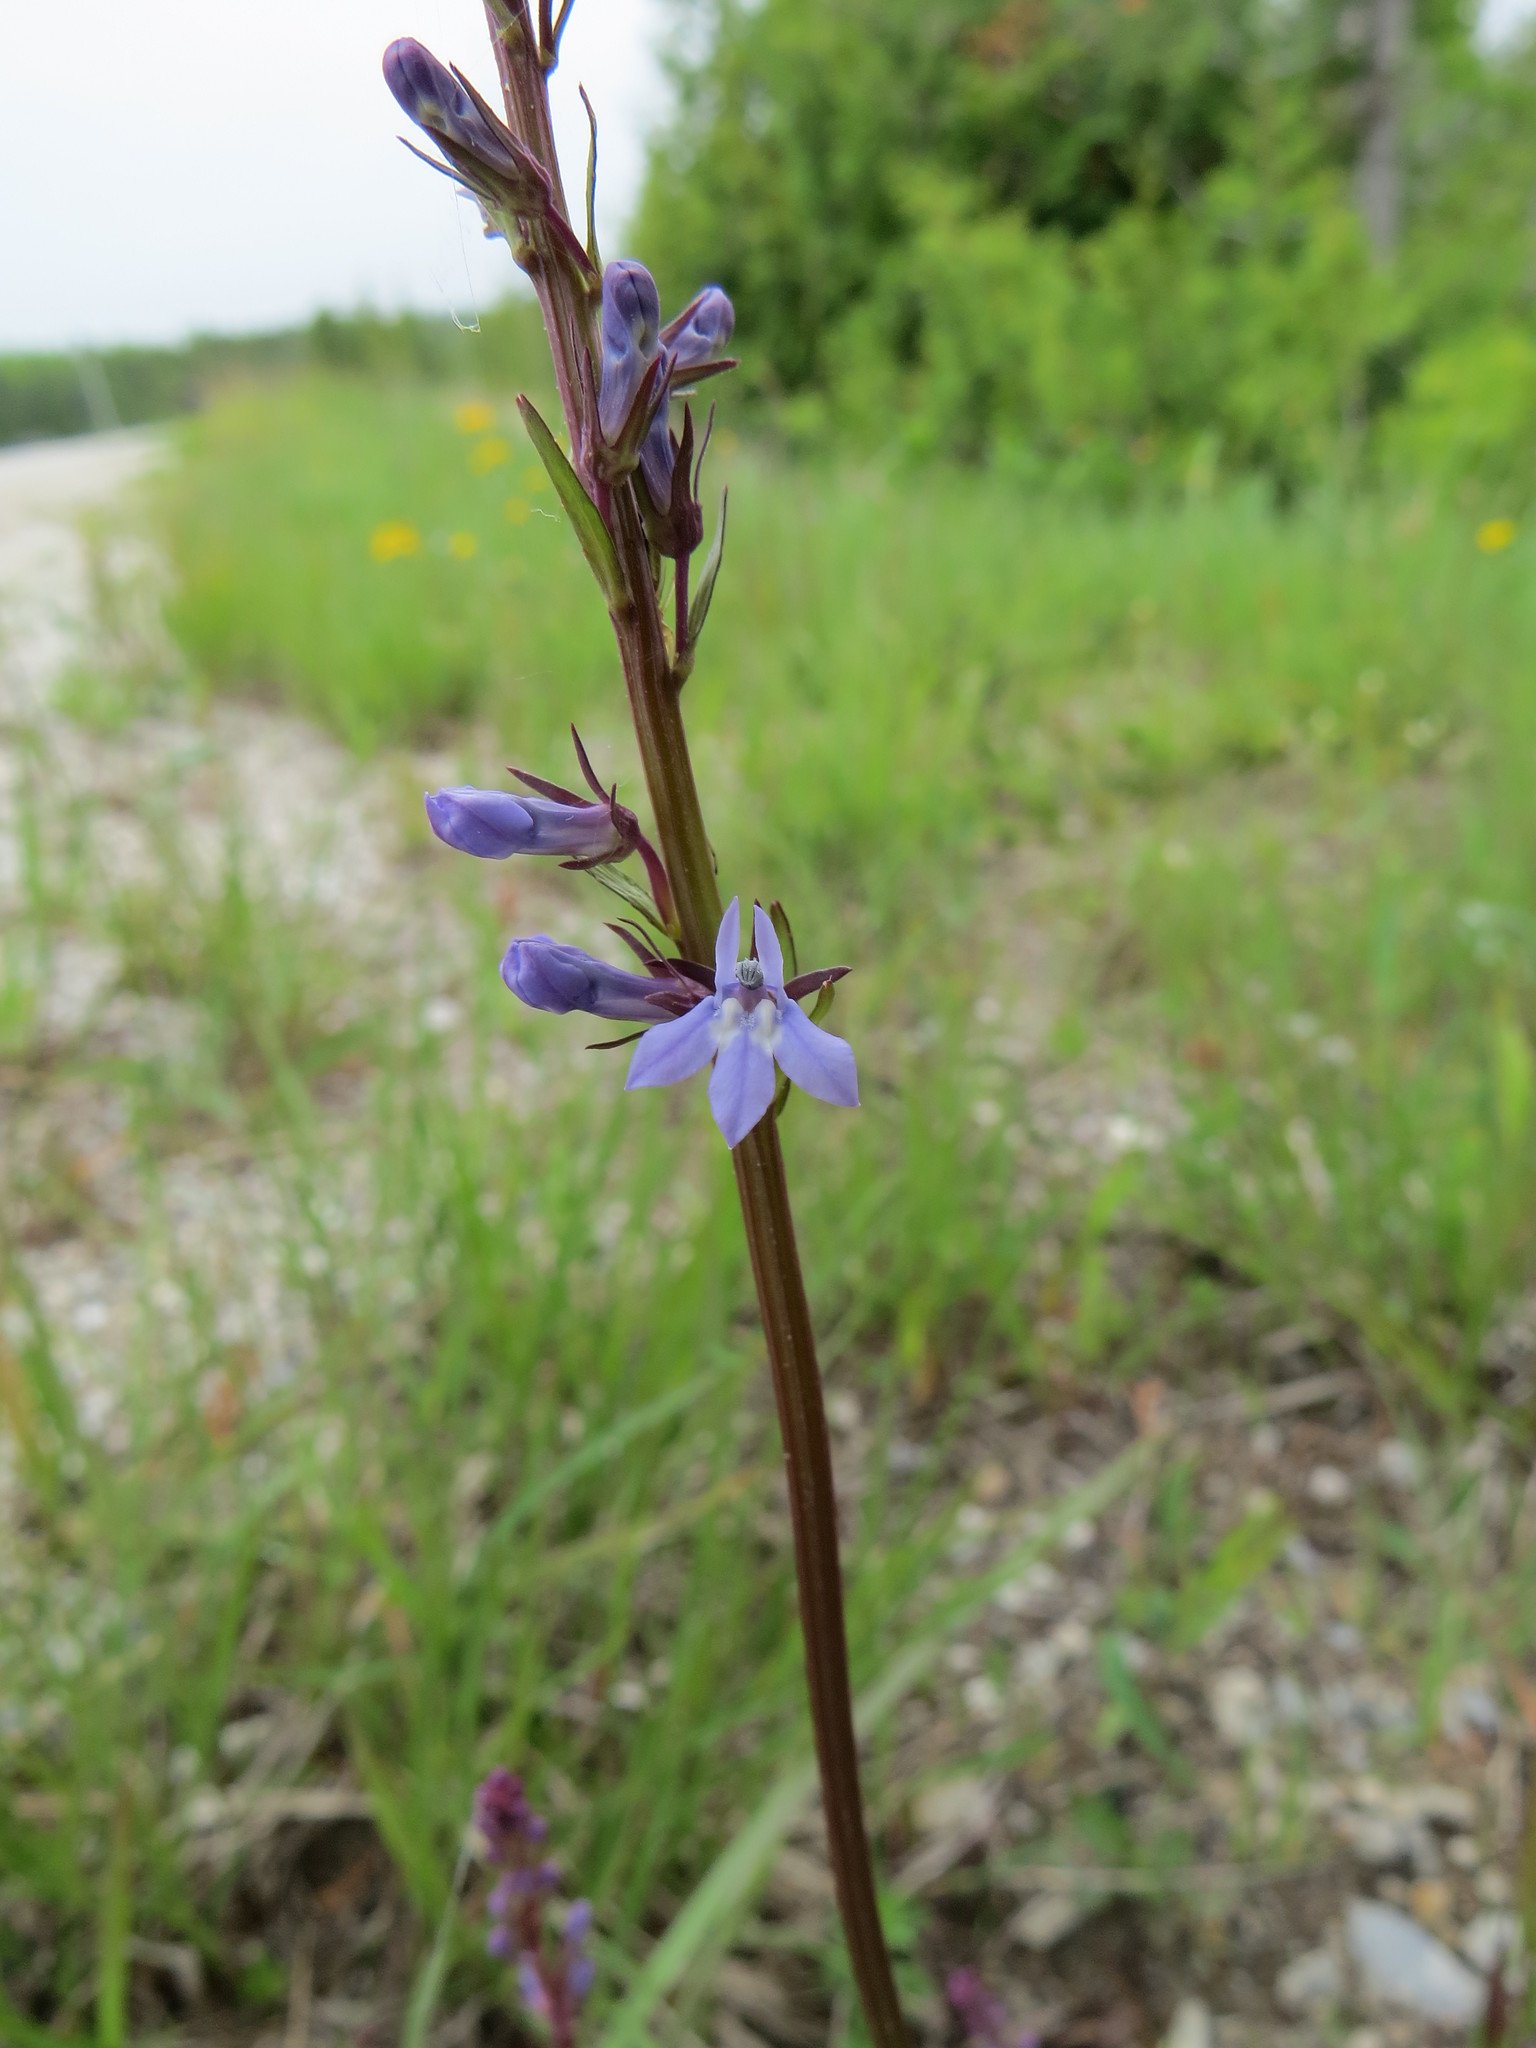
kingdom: Plantae
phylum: Tracheophyta
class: Magnoliopsida
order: Asterales
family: Campanulaceae
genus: Lobelia
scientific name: Lobelia spicata
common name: Pale-spike lobelia
